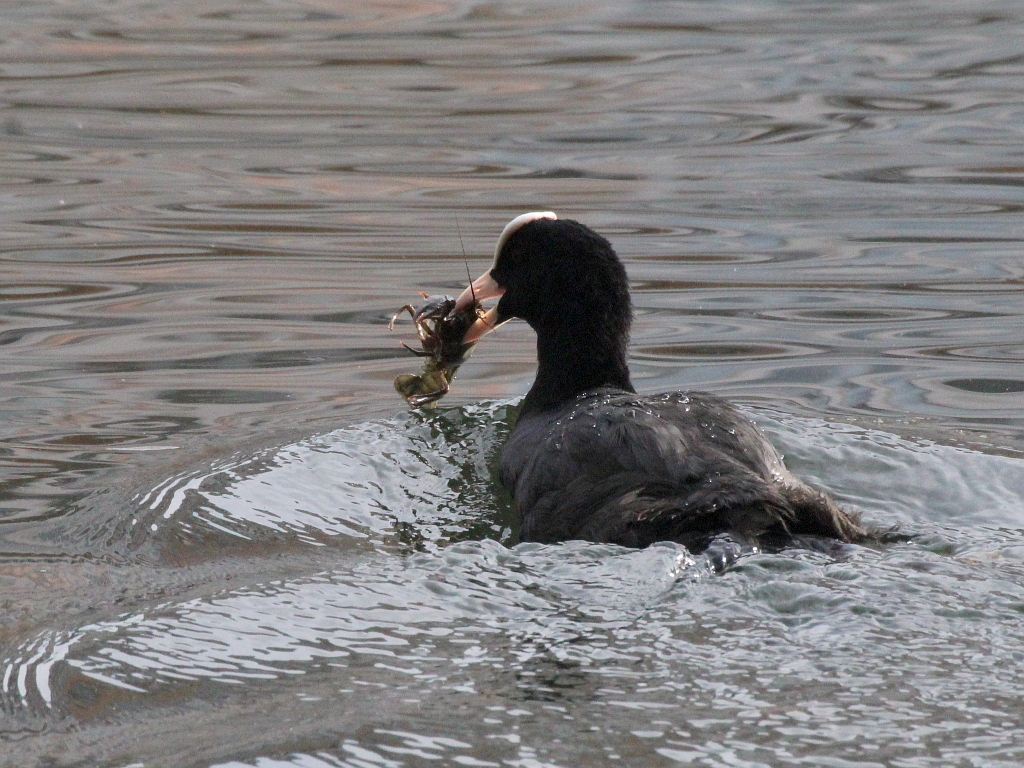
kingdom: Animalia
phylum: Chordata
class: Aves
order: Gruiformes
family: Rallidae
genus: Fulica
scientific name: Fulica atra
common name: Eurasian coot
